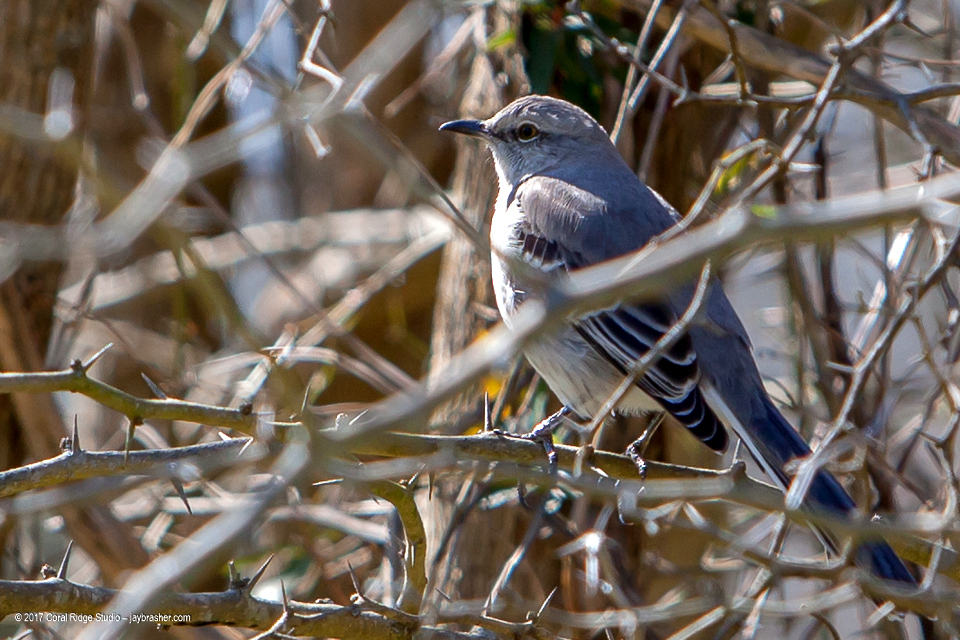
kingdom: Animalia
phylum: Chordata
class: Aves
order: Passeriformes
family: Mimidae
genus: Mimus
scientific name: Mimus polyglottos
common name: Northern mockingbird
